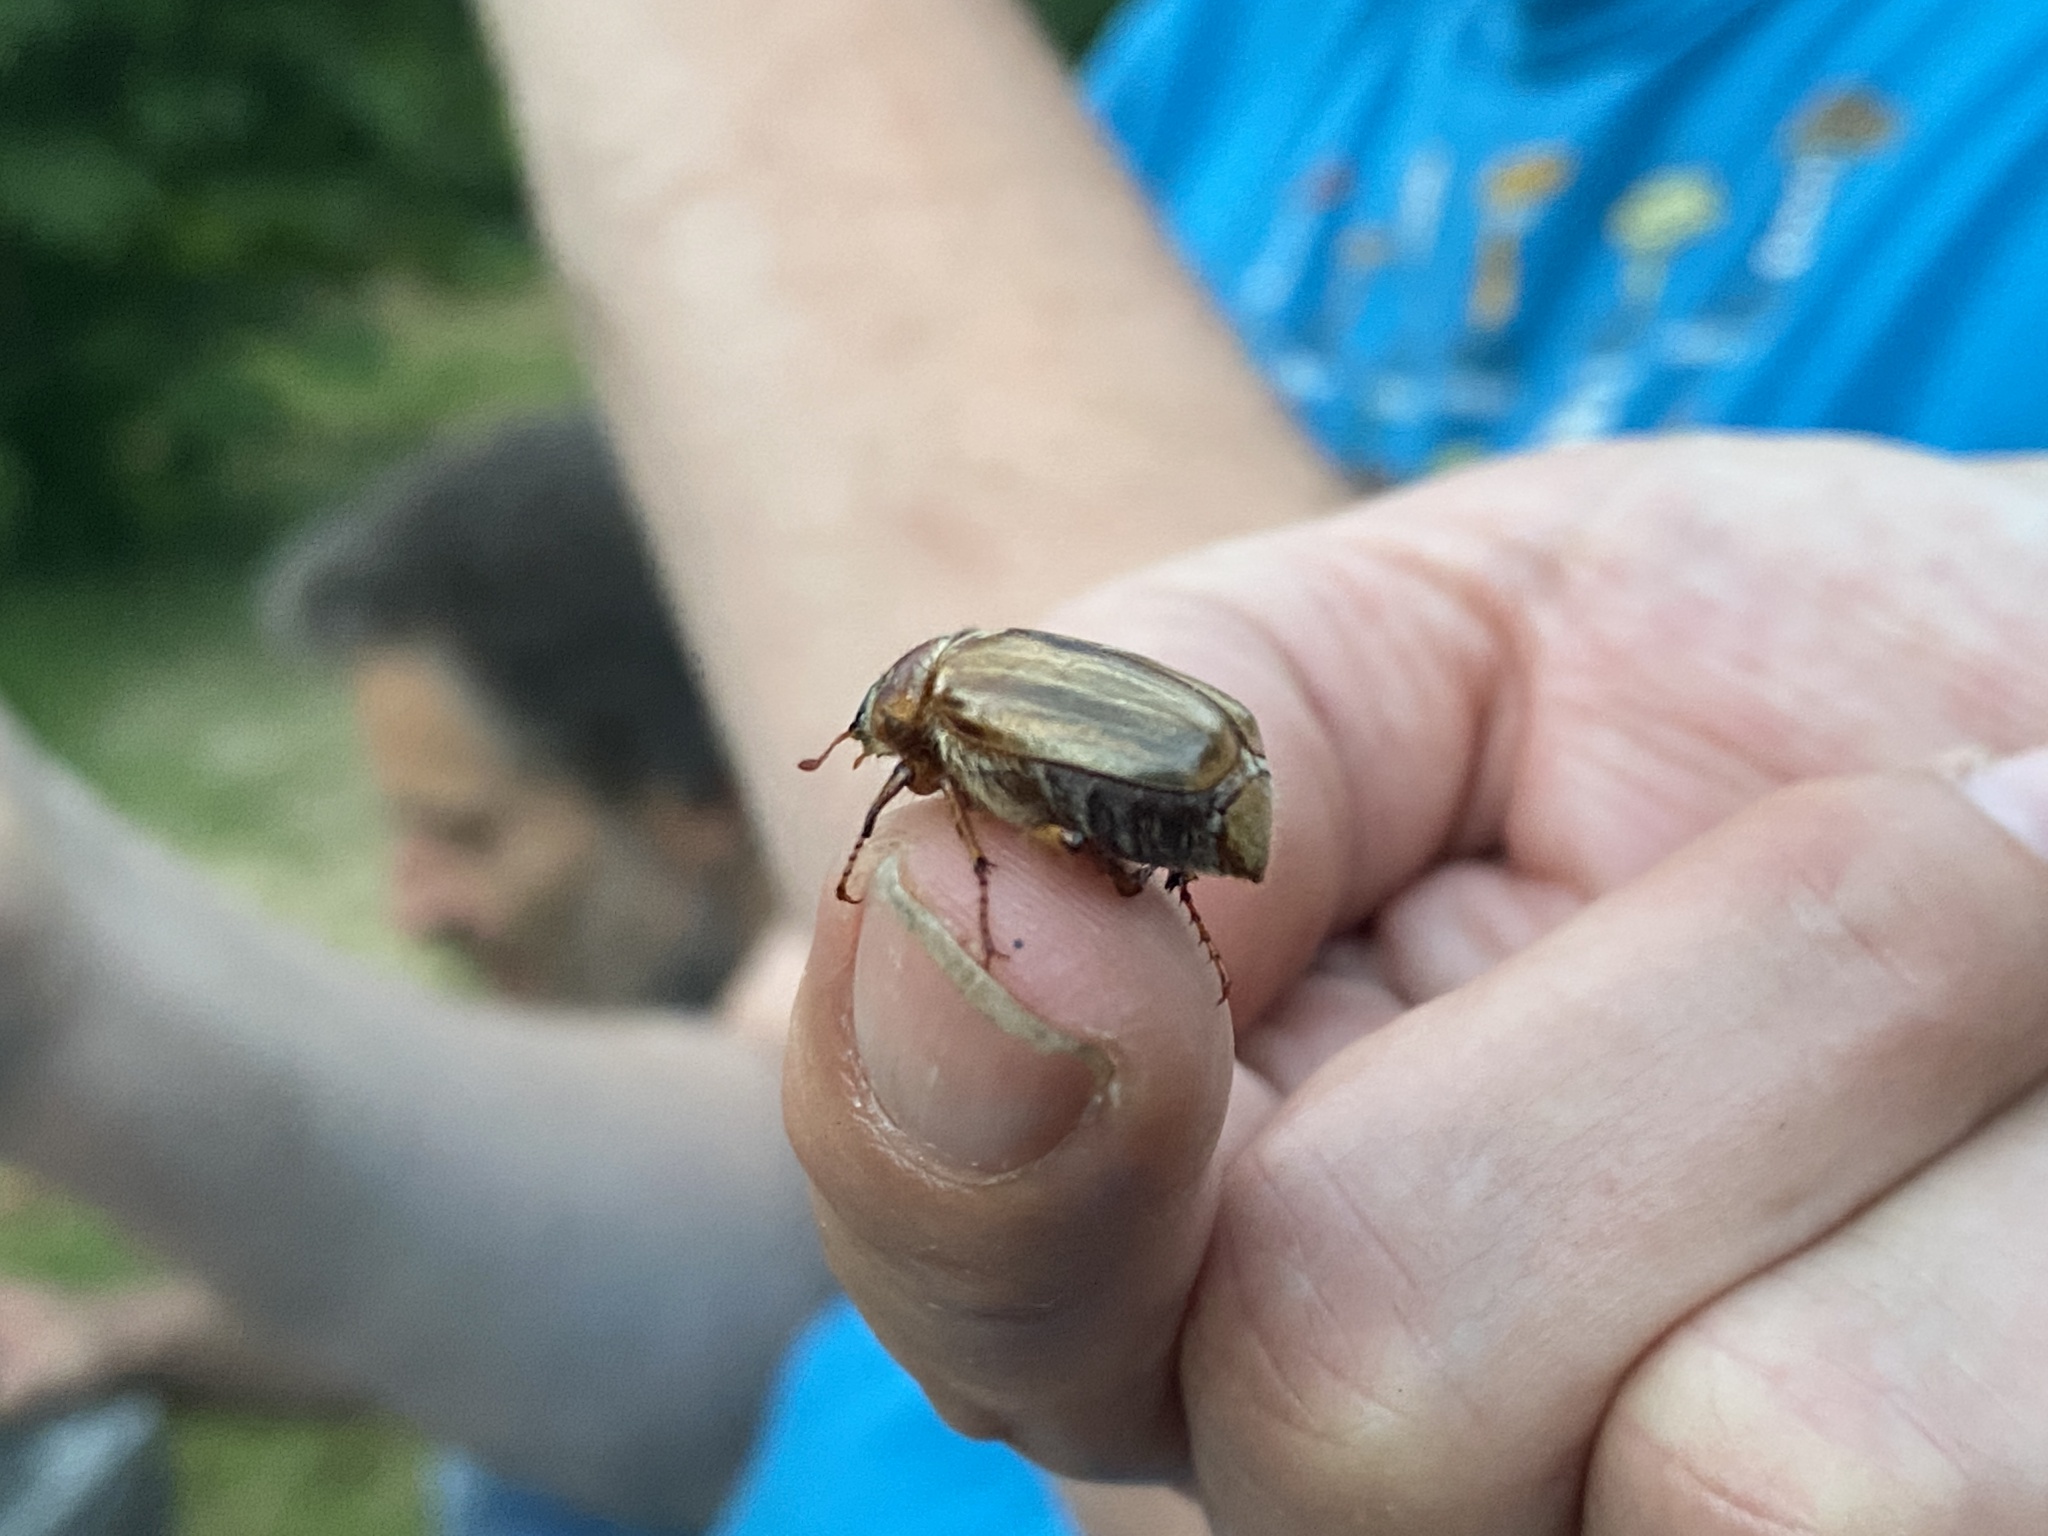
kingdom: Animalia
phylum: Arthropoda
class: Insecta
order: Coleoptera
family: Scarabaeidae
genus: Amphimallon
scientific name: Amphimallon solstitiale
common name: Summer chafer
